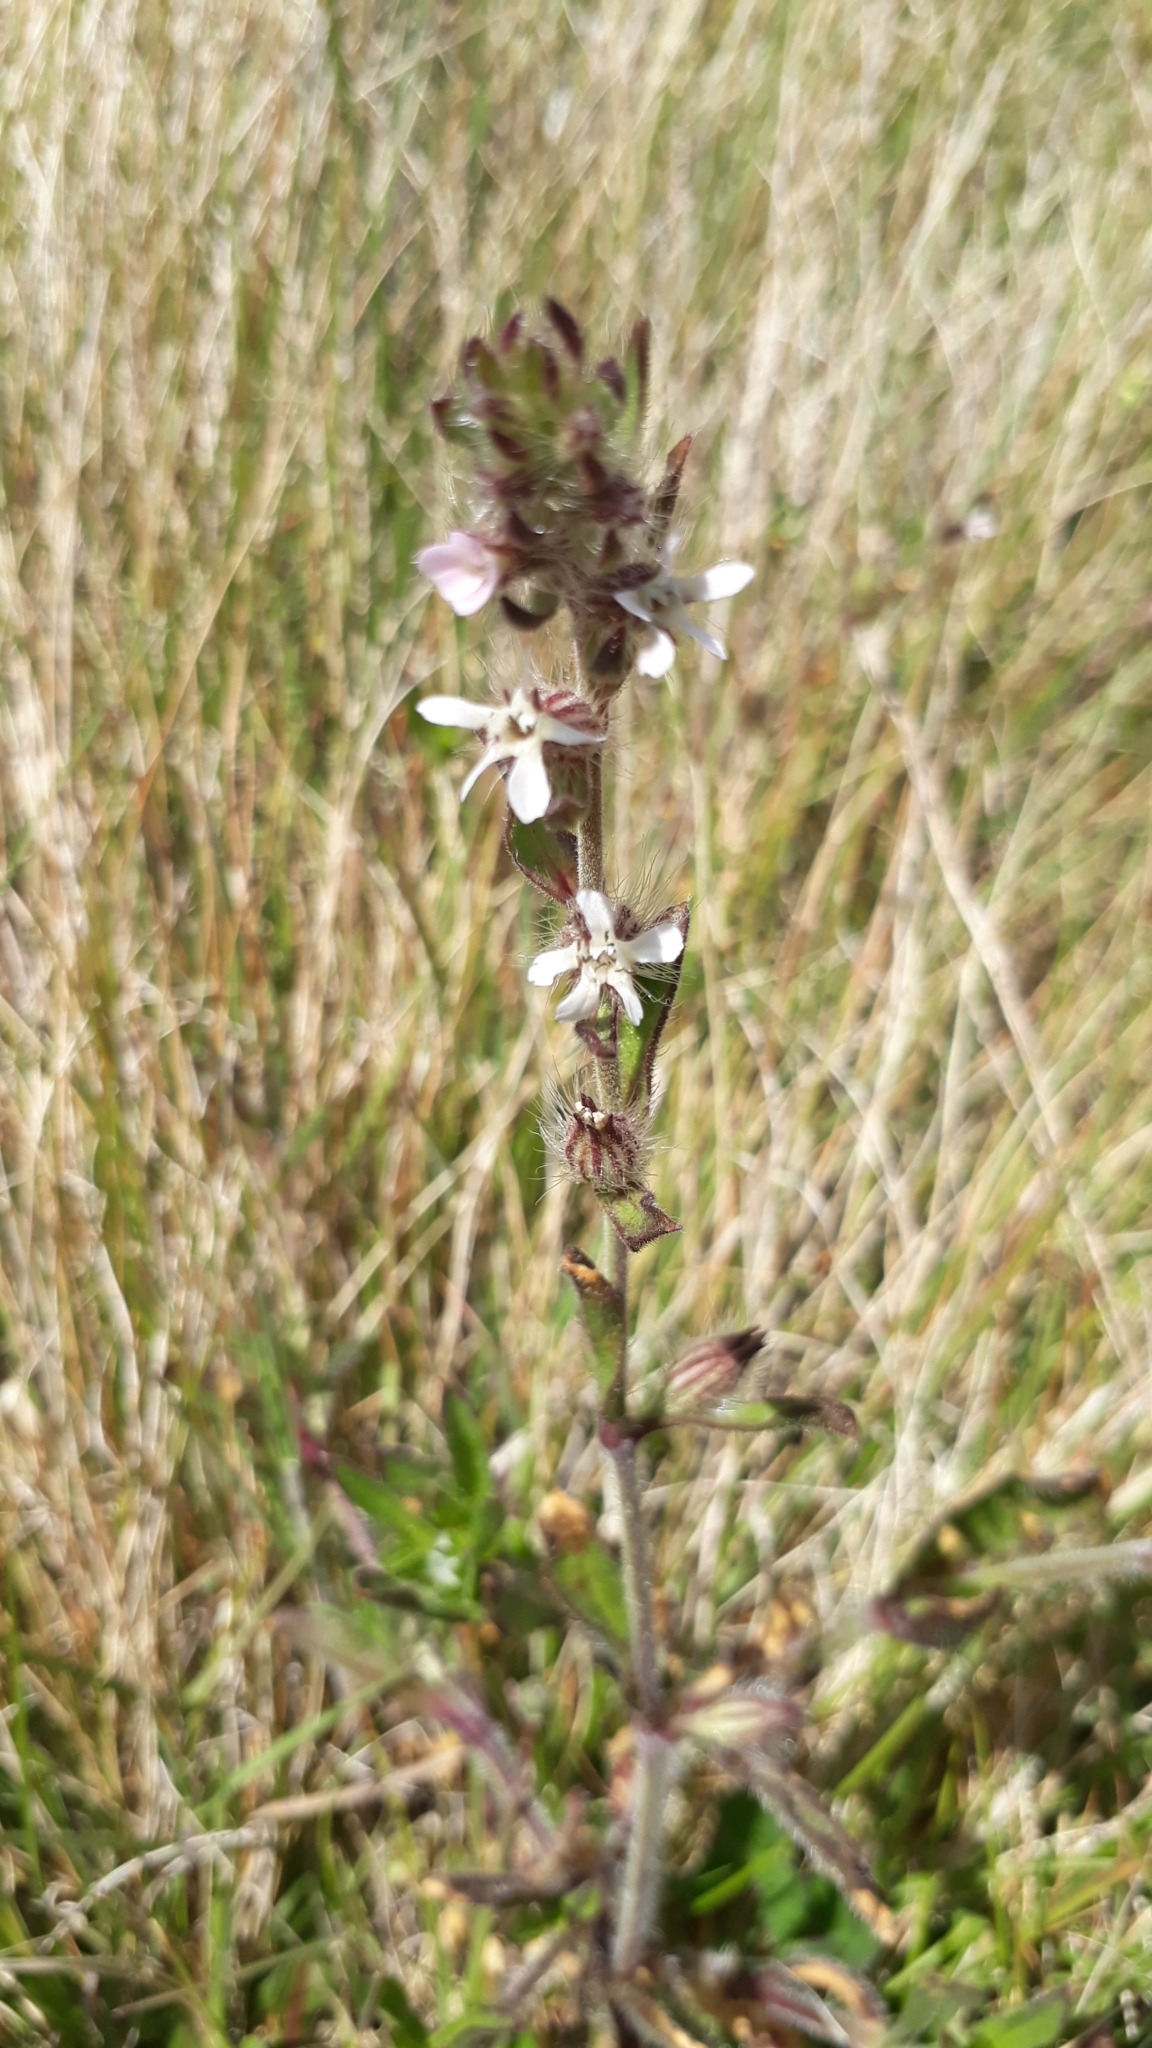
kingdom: Plantae
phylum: Tracheophyta
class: Magnoliopsida
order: Caryophyllales
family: Caryophyllaceae
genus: Silene
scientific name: Silene gallica
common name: Small-flowered catchfly
